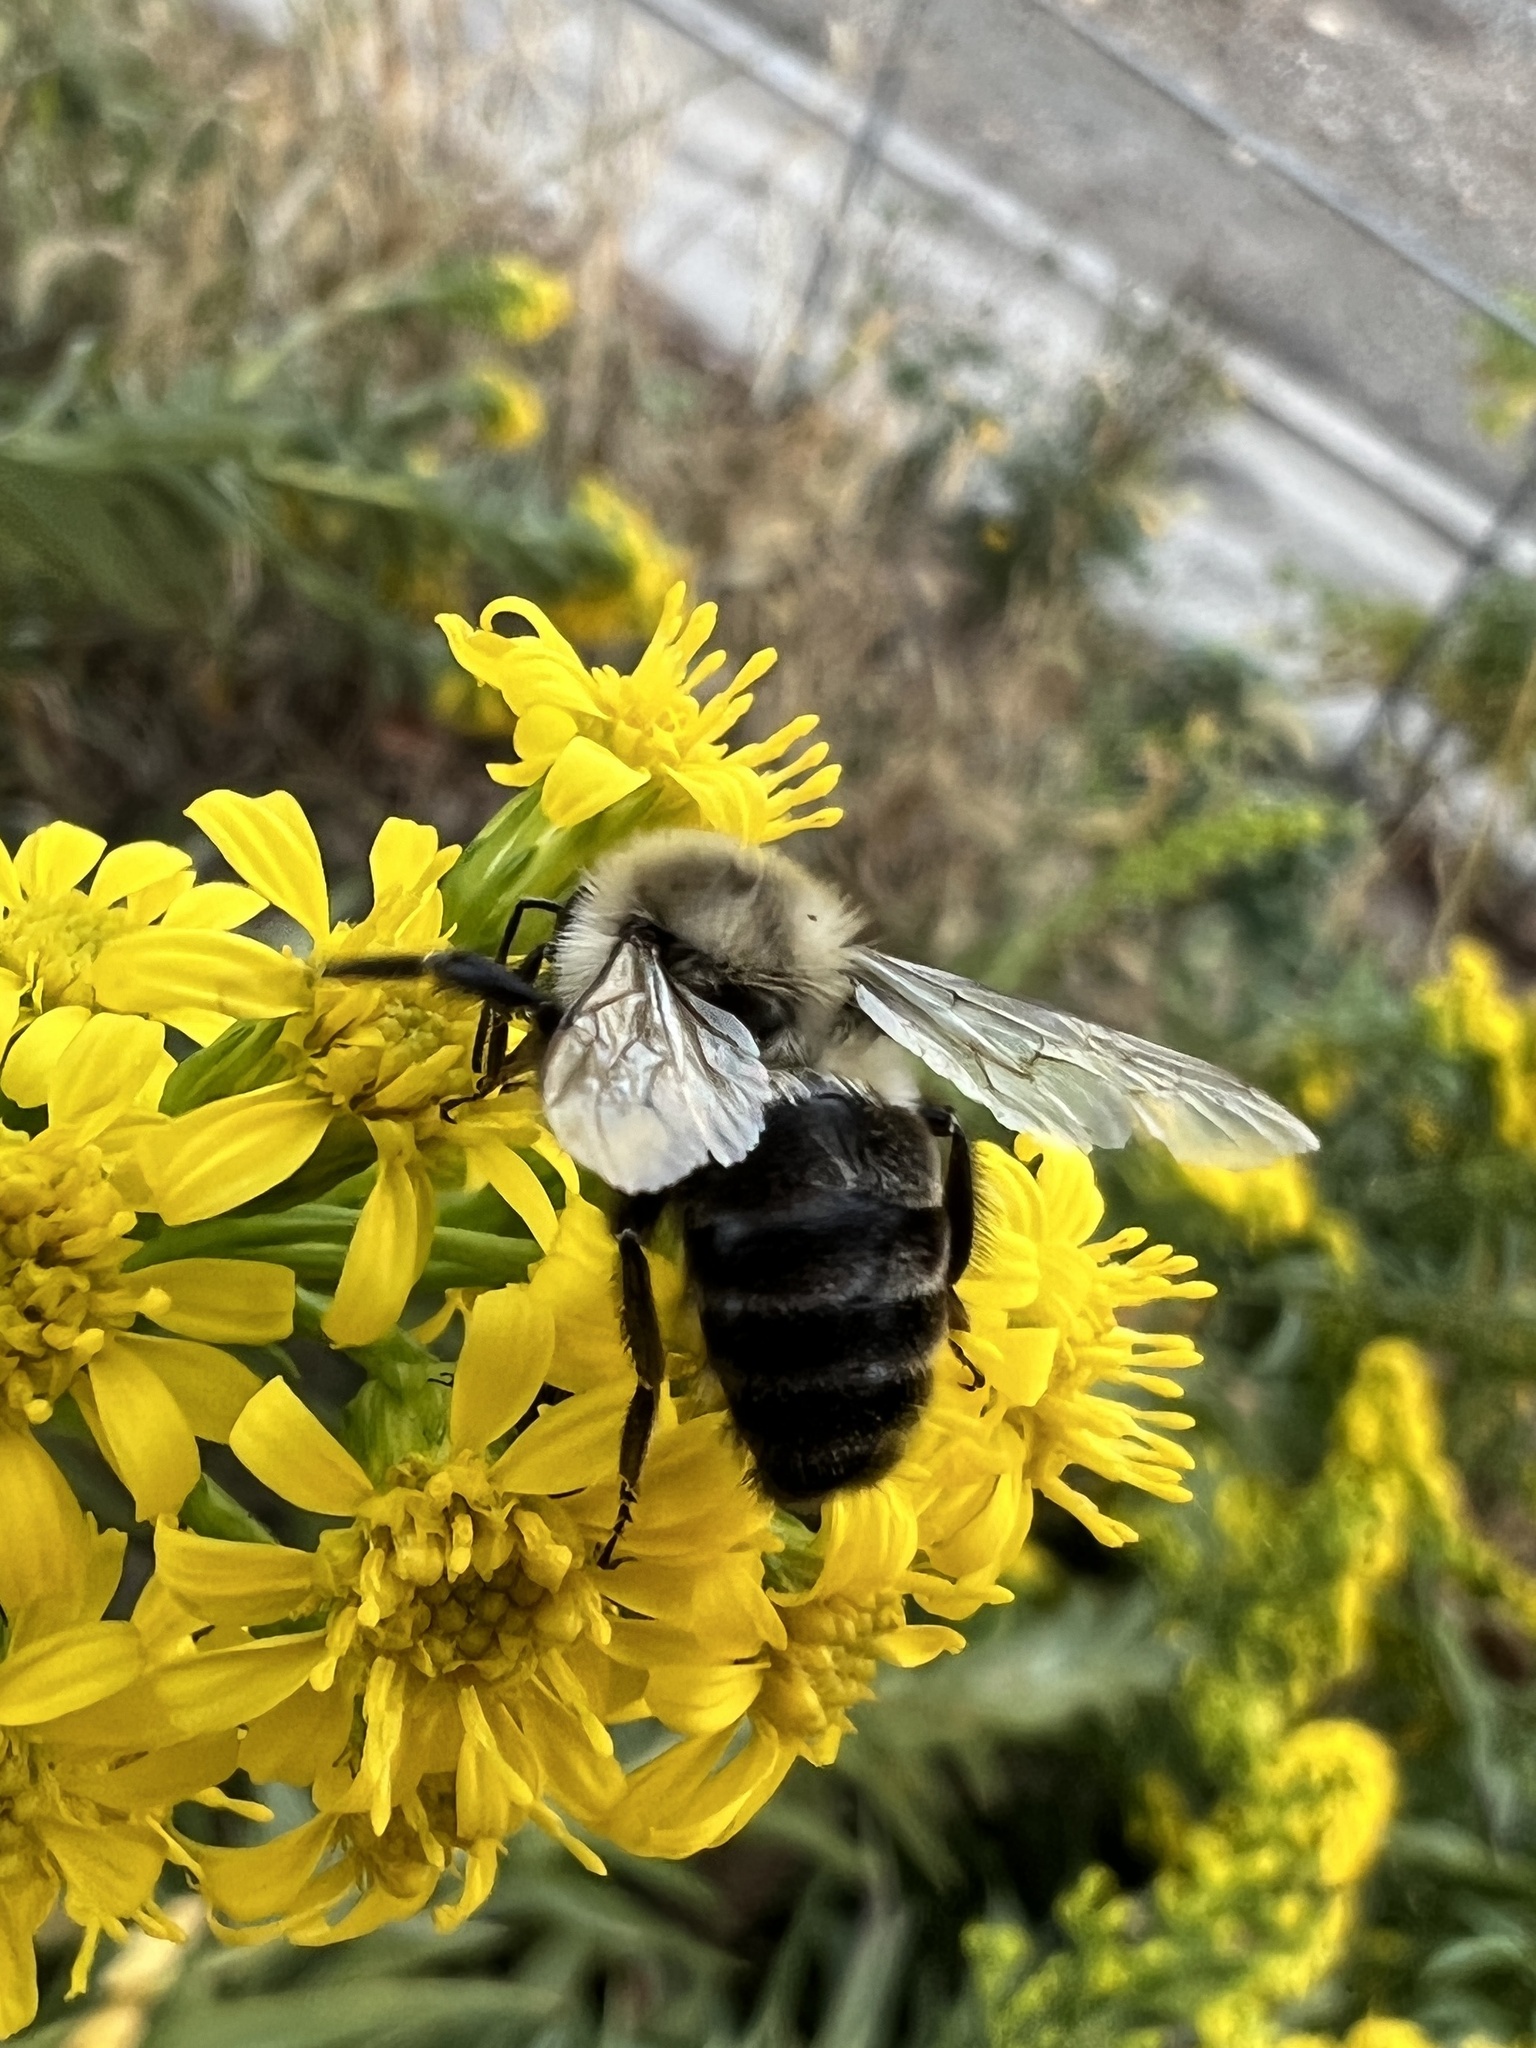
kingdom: Animalia
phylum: Arthropoda
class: Insecta
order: Hymenoptera
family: Apidae
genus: Bombus
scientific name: Bombus impatiens
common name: Common eastern bumble bee
